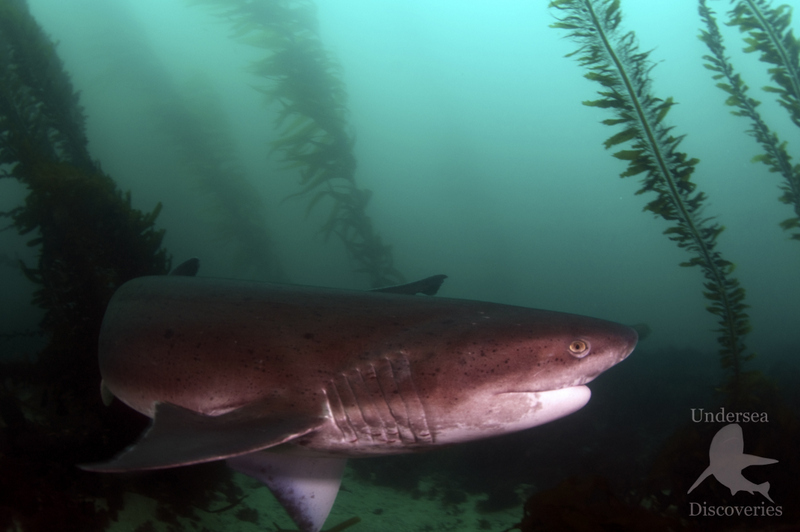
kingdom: Animalia
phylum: Chordata
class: Elasmobranchii
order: Hexanchiformes
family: Hexanchidae
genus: Notorynchus
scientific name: Notorynchus cepedianus
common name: Broadnose sevengill shark
